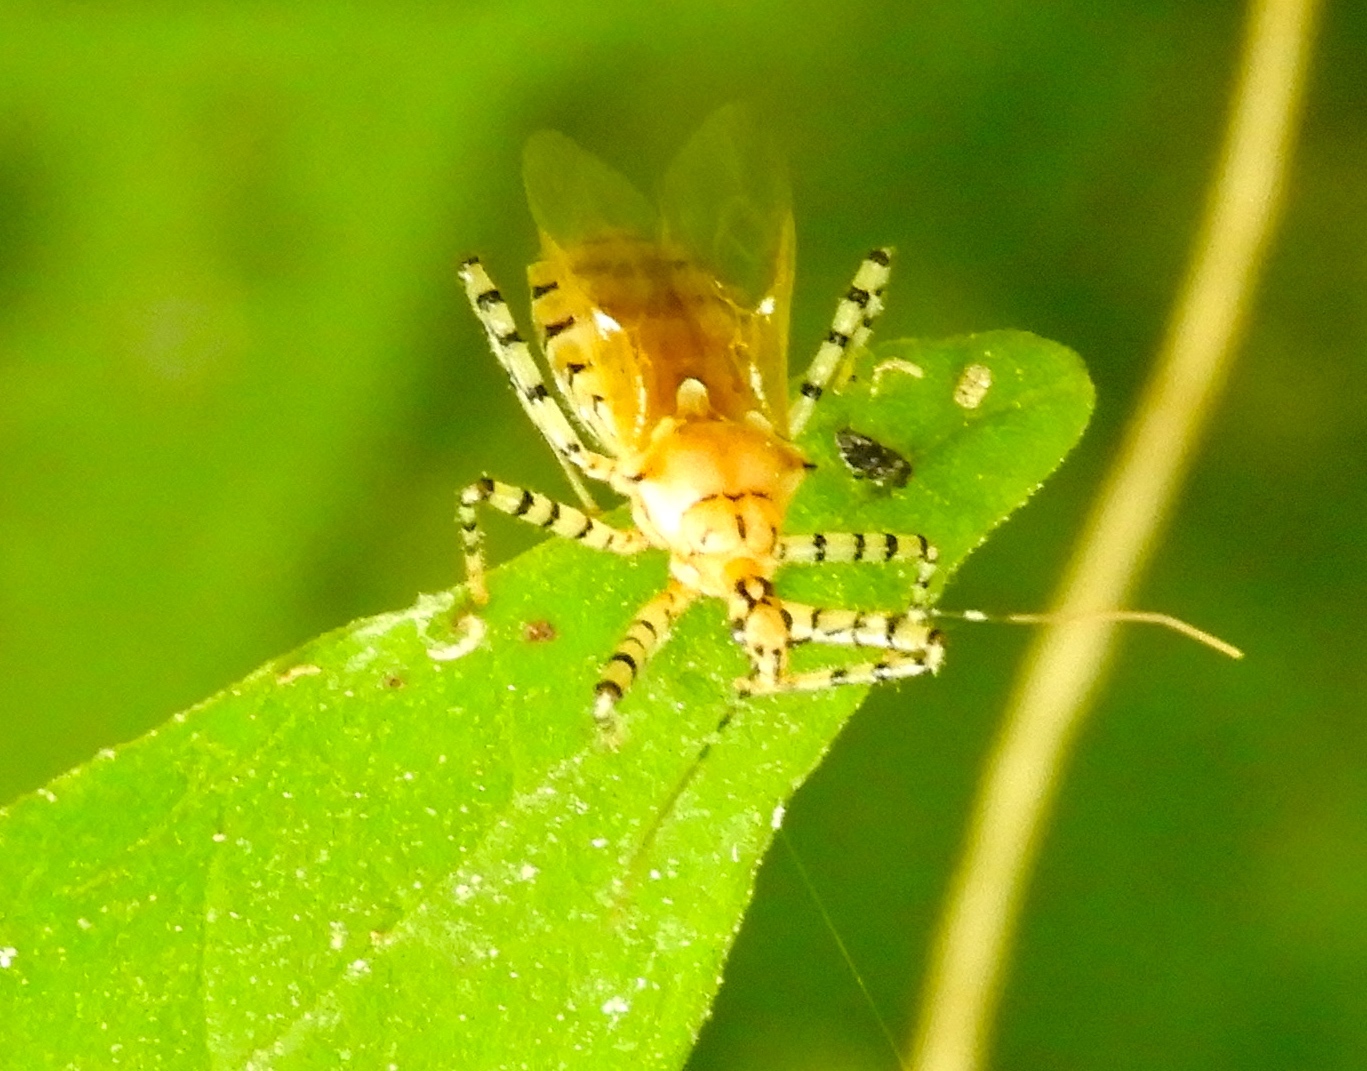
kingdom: Animalia
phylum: Arthropoda
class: Insecta
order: Hemiptera
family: Reduviidae
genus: Pselliopus
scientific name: Pselliopus
